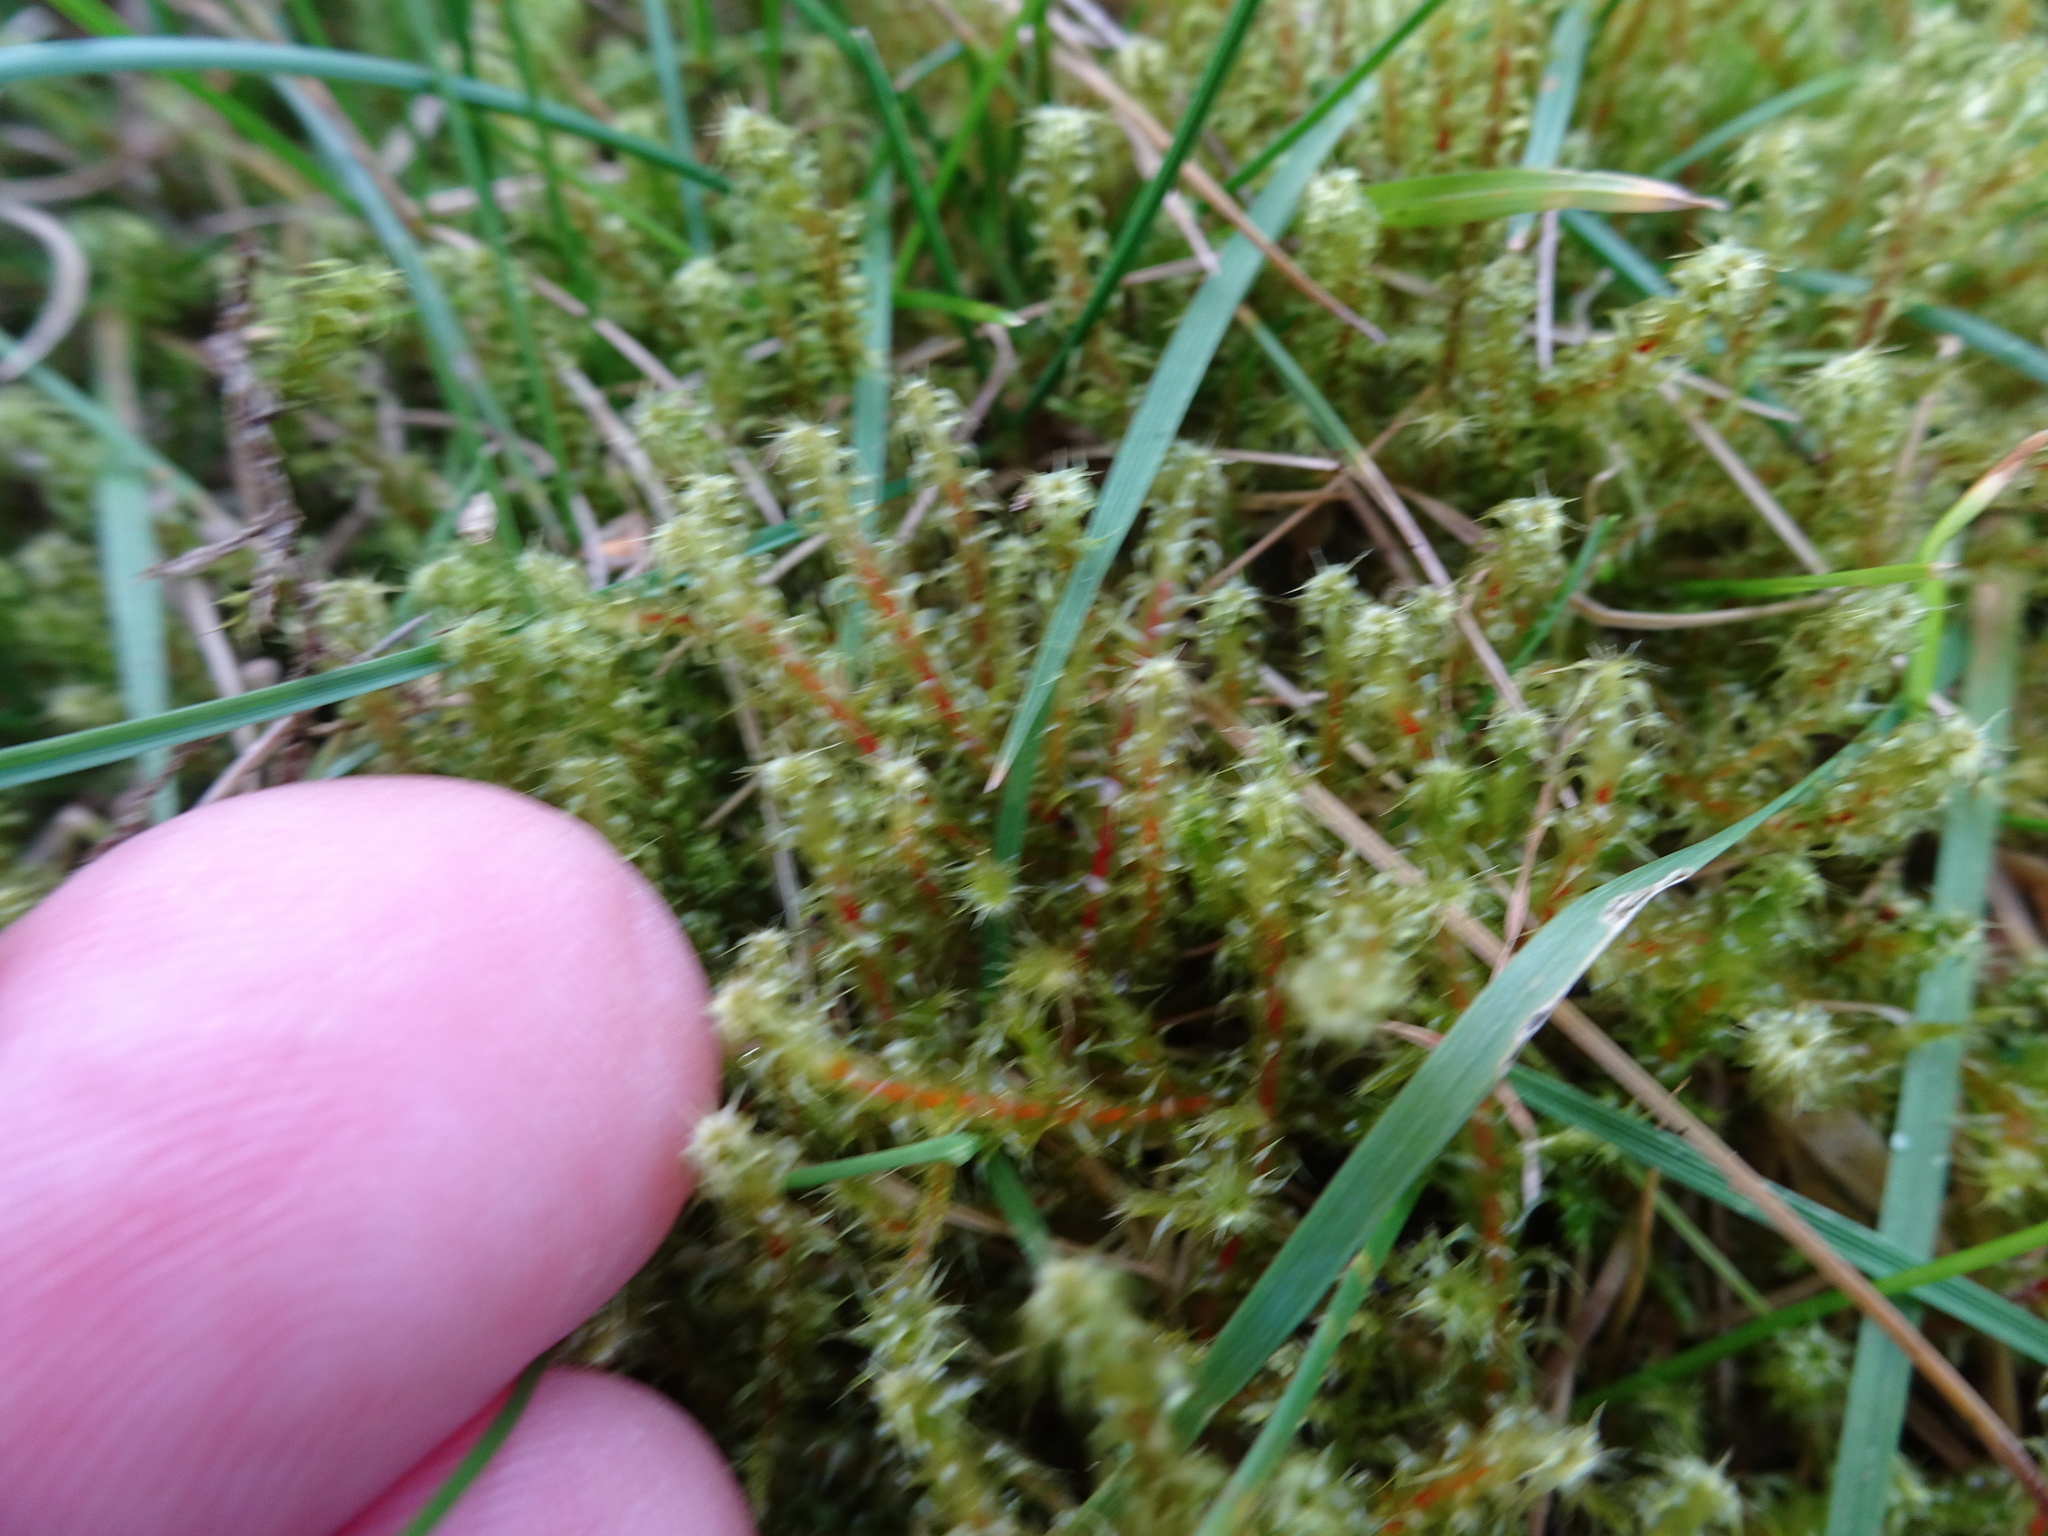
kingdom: Plantae
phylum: Bryophyta
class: Bryopsida
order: Hypnales
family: Hylocomiaceae
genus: Rhytidiadelphus
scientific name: Rhytidiadelphus squarrosus
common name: Springy turf-moss
